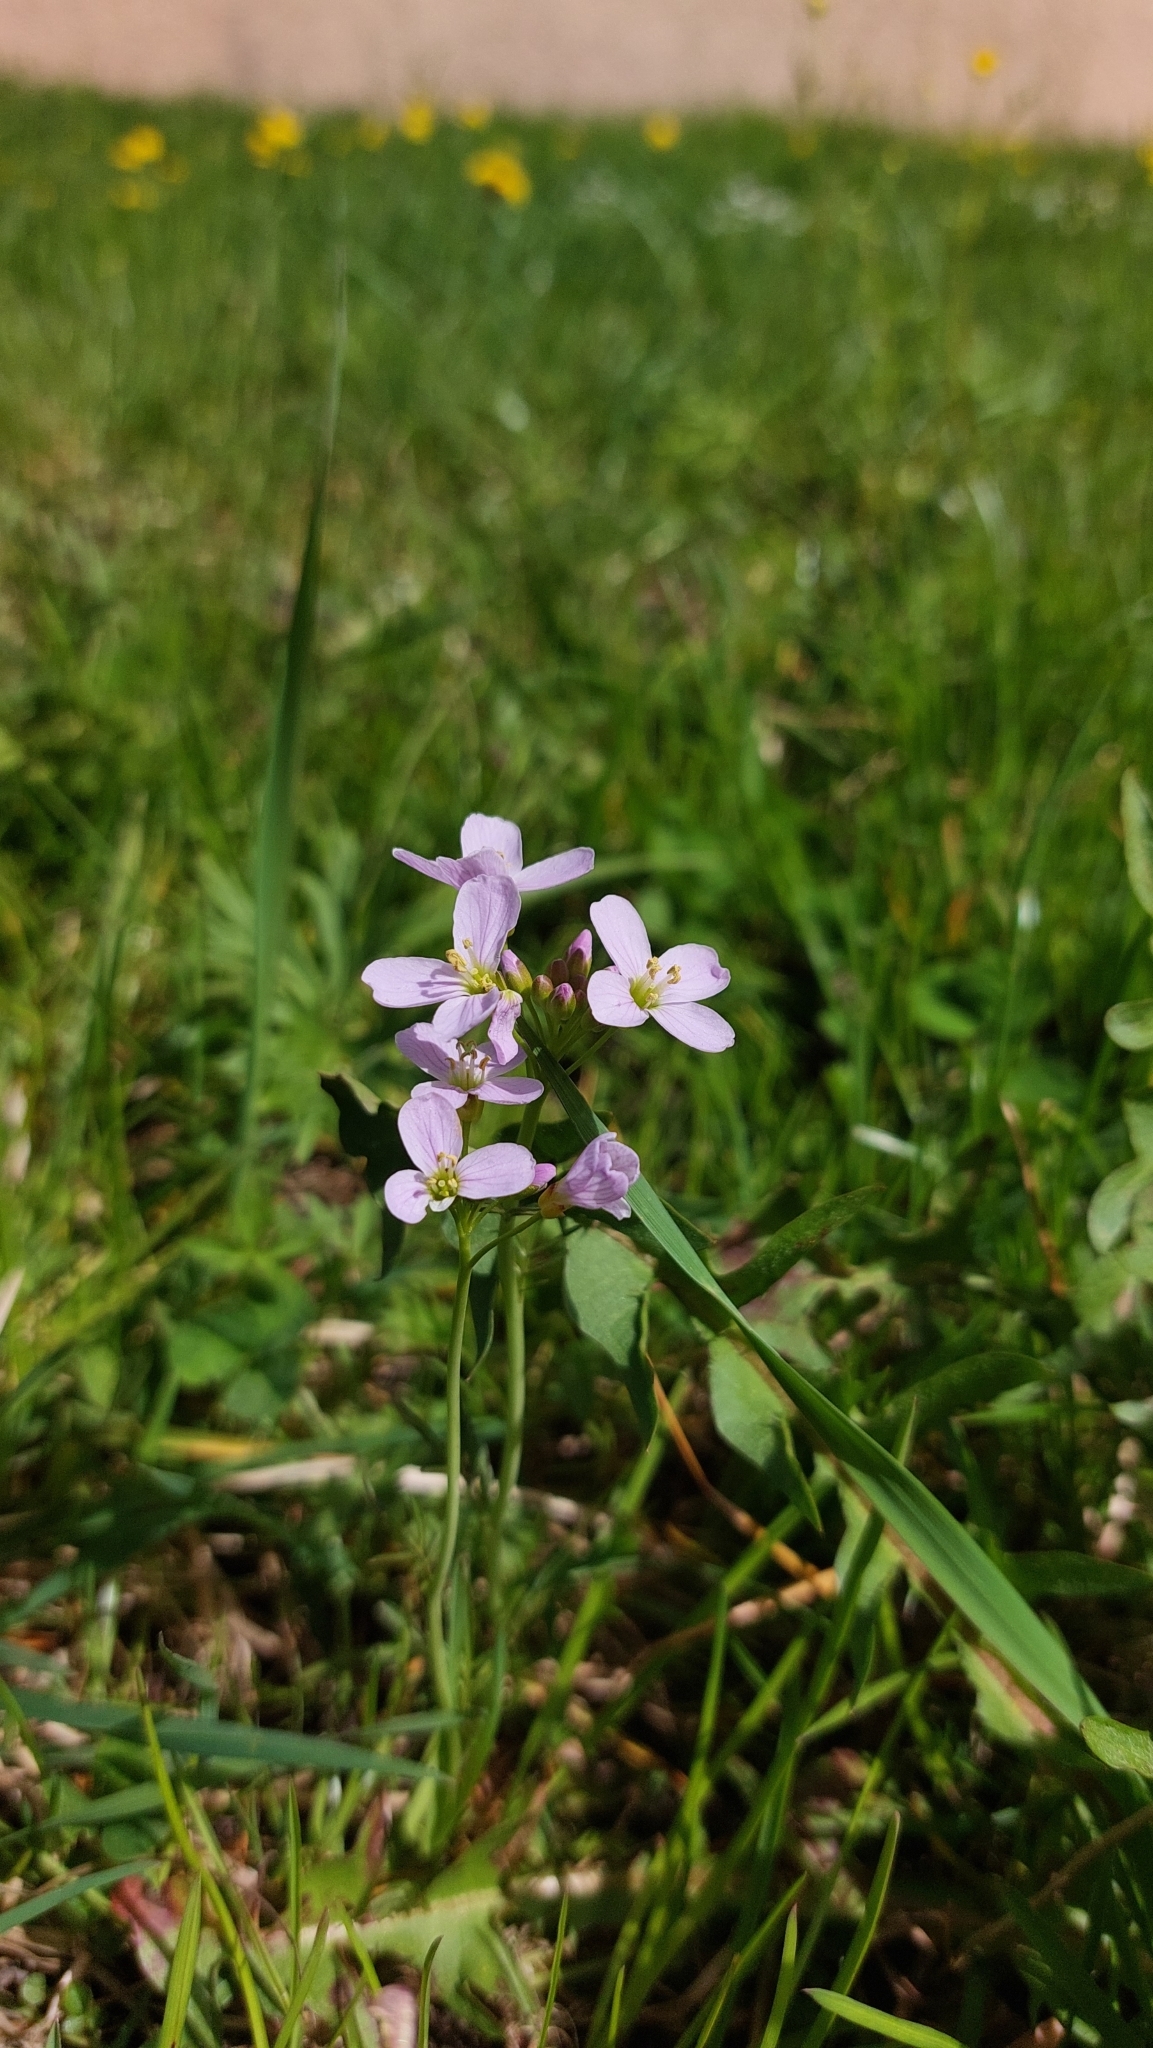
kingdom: Plantae
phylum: Tracheophyta
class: Magnoliopsida
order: Brassicales
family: Brassicaceae
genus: Cardamine
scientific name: Cardamine pratensis
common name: Cuckoo flower
